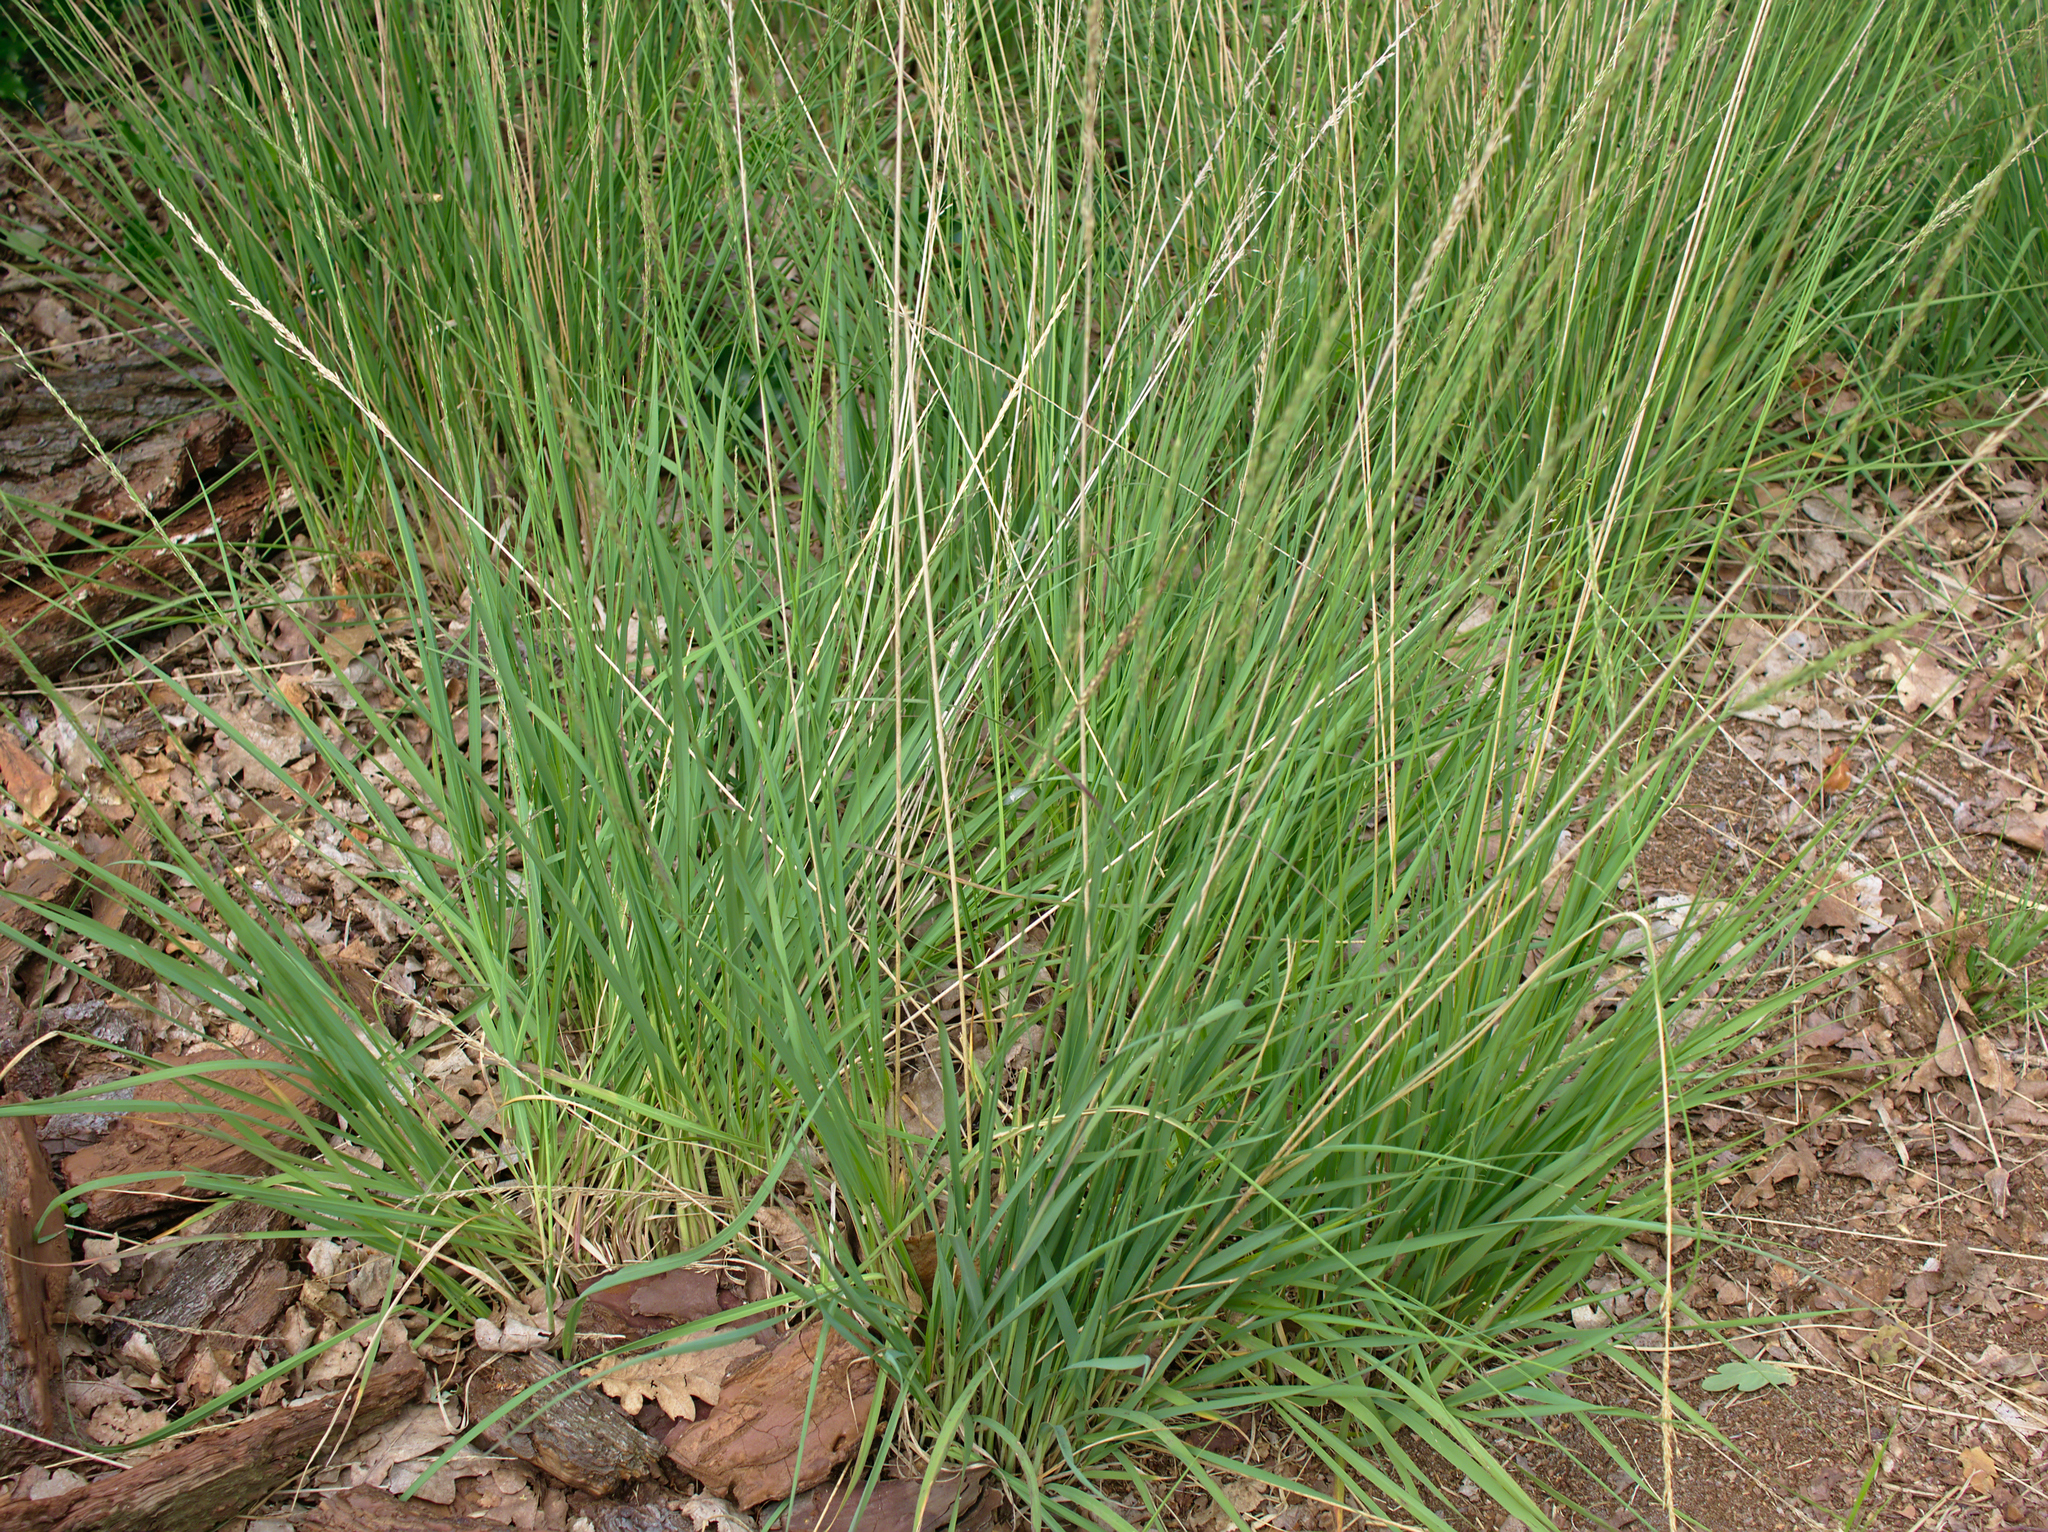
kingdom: Plantae
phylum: Tracheophyta
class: Liliopsida
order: Poales
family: Poaceae
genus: Molinia
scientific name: Molinia caerulea
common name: Purple moor-grass
